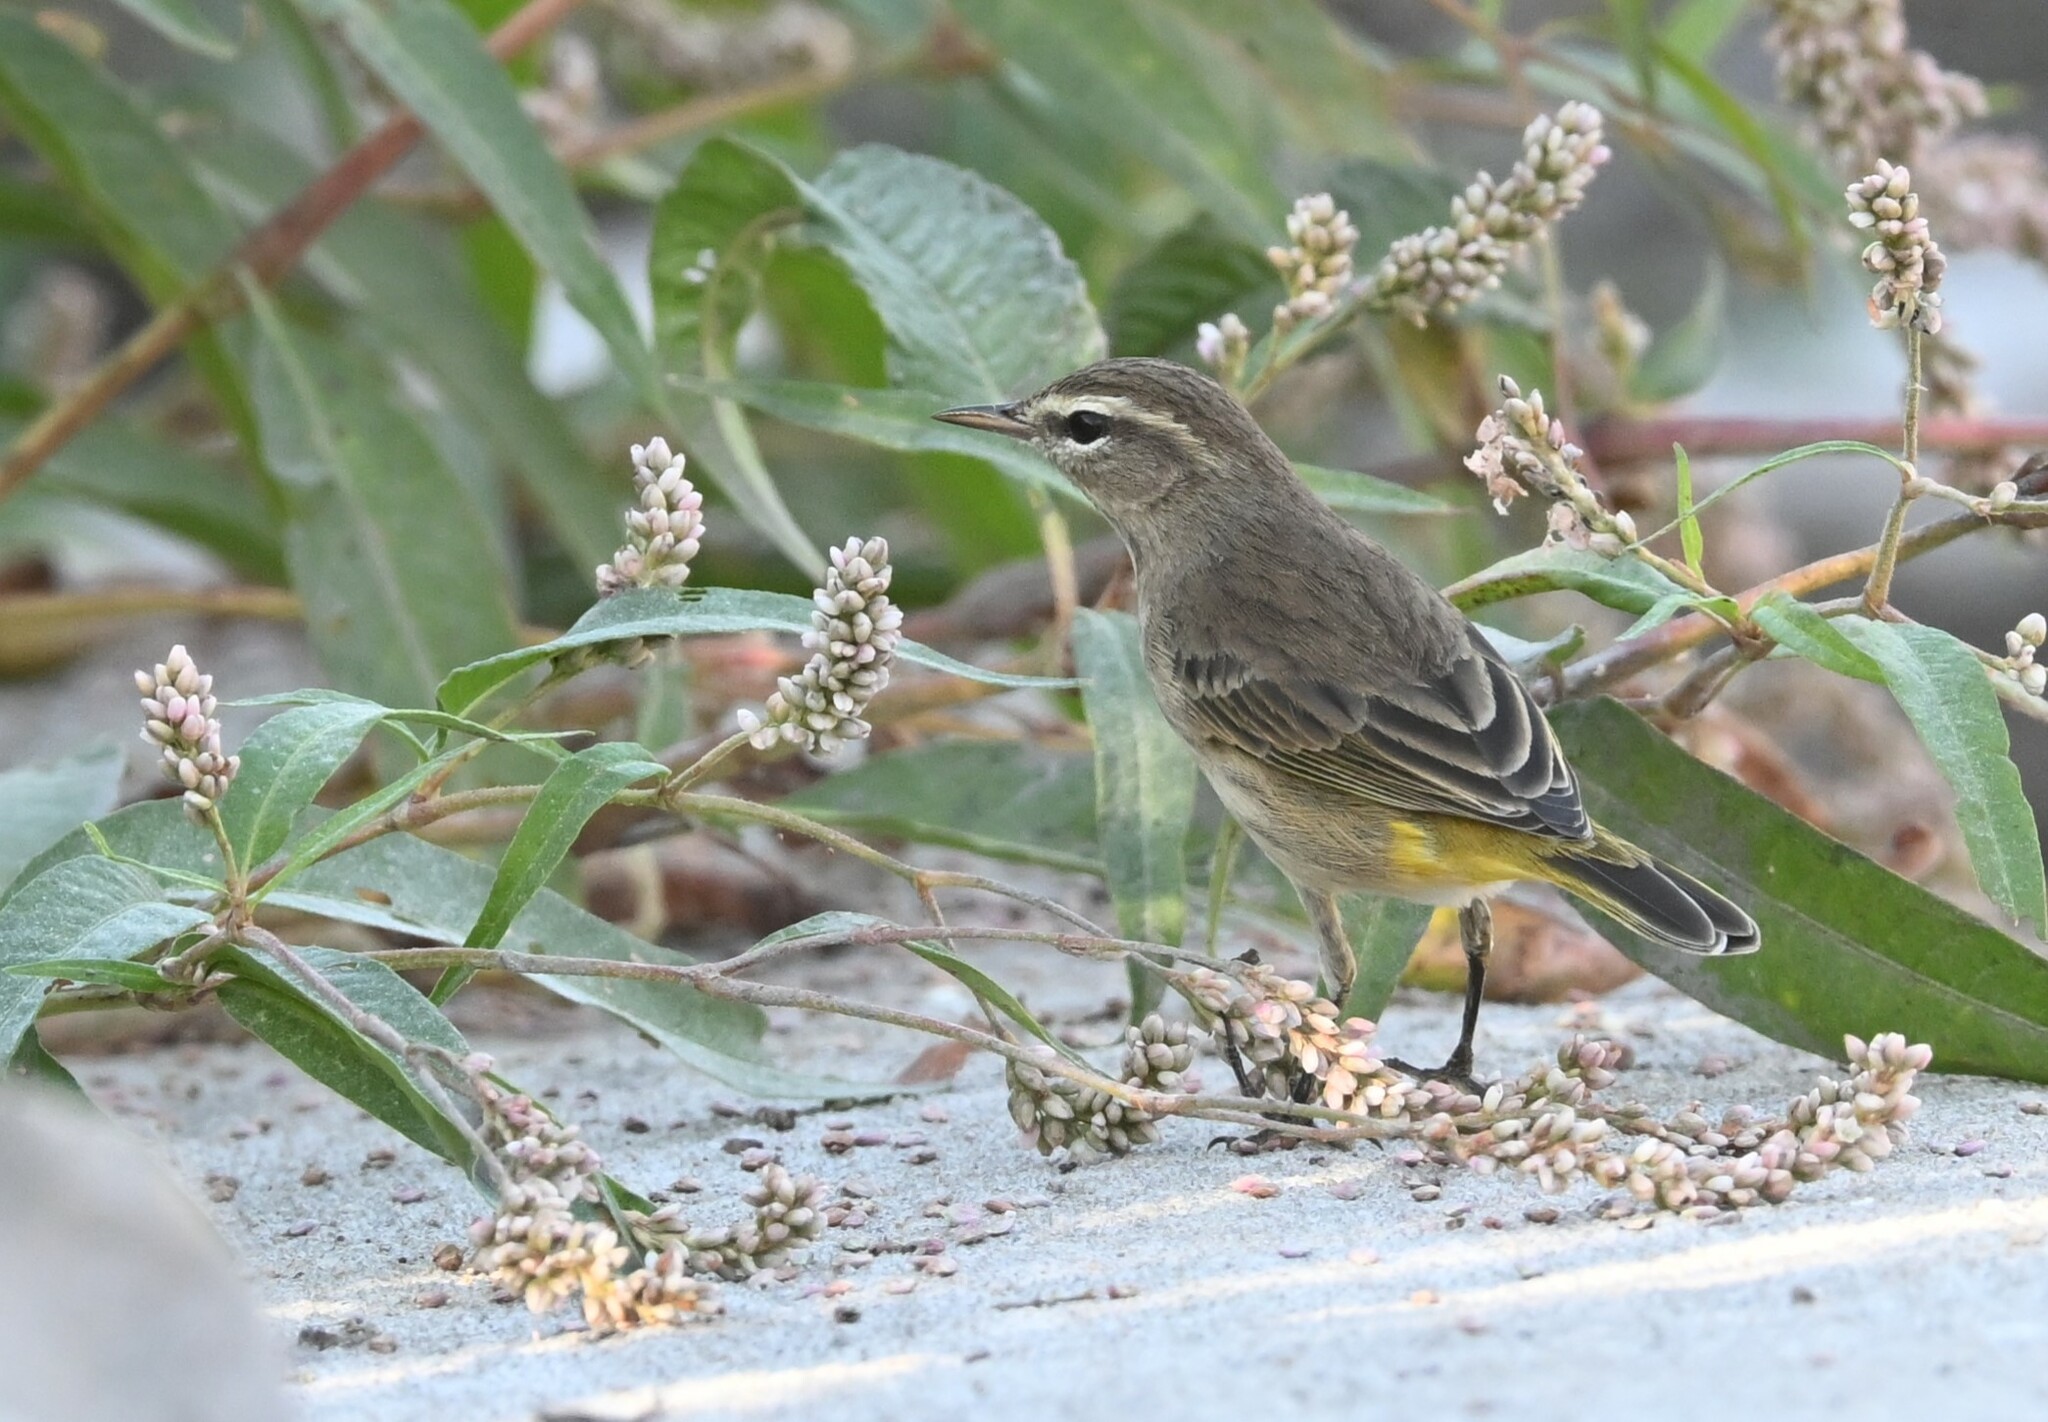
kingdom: Animalia
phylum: Chordata
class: Aves
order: Passeriformes
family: Parulidae
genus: Setophaga
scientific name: Setophaga palmarum
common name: Palm warbler
